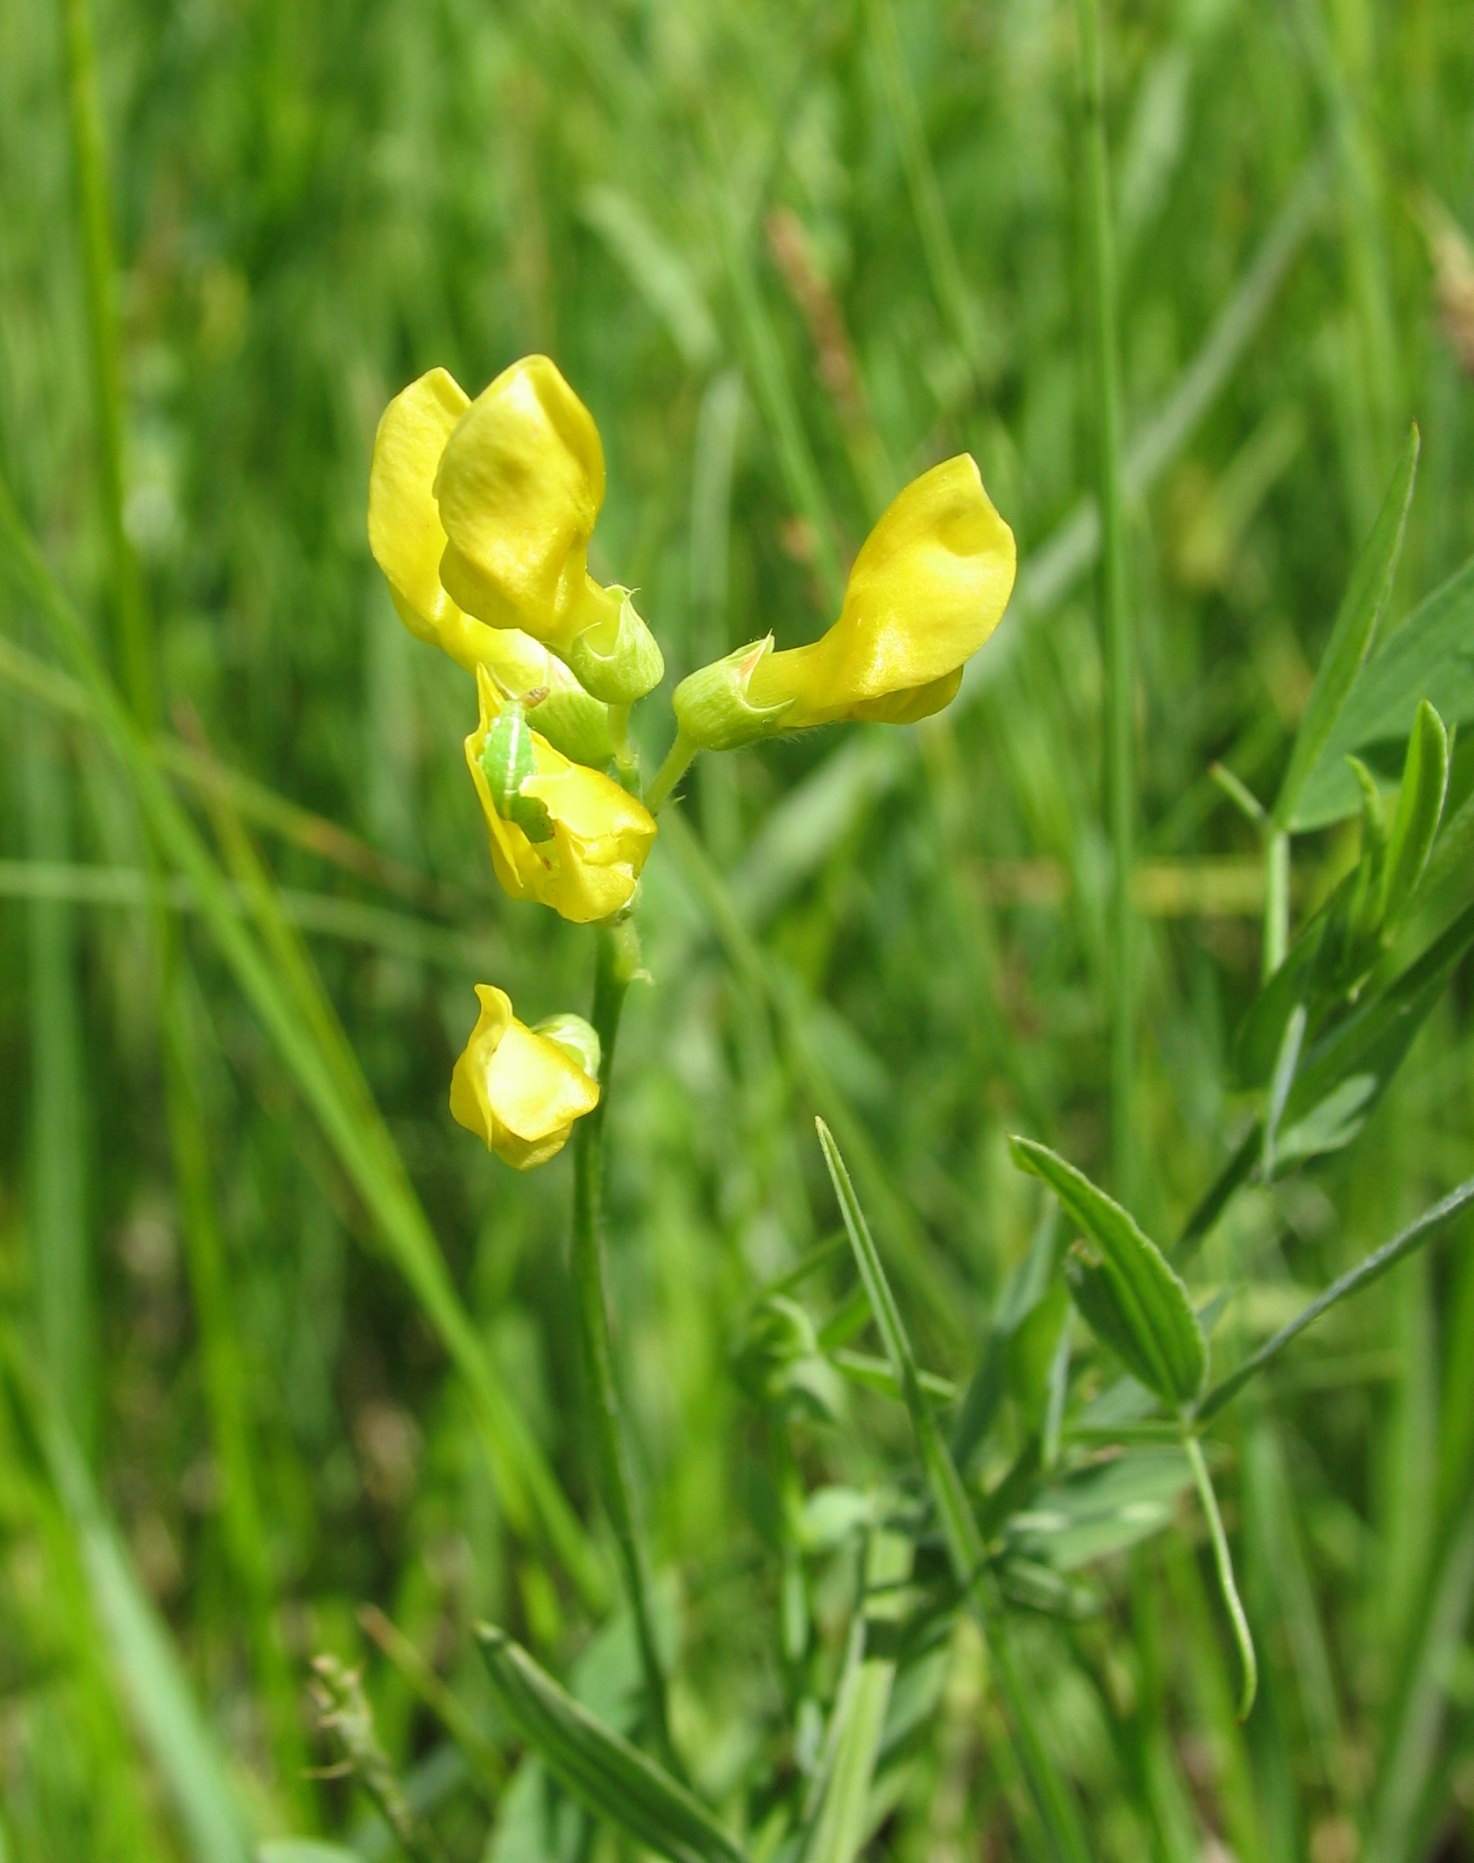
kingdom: Plantae
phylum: Tracheophyta
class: Magnoliopsida
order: Fabales
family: Fabaceae
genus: Lathyrus
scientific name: Lathyrus pratensis
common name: Meadow vetchling
